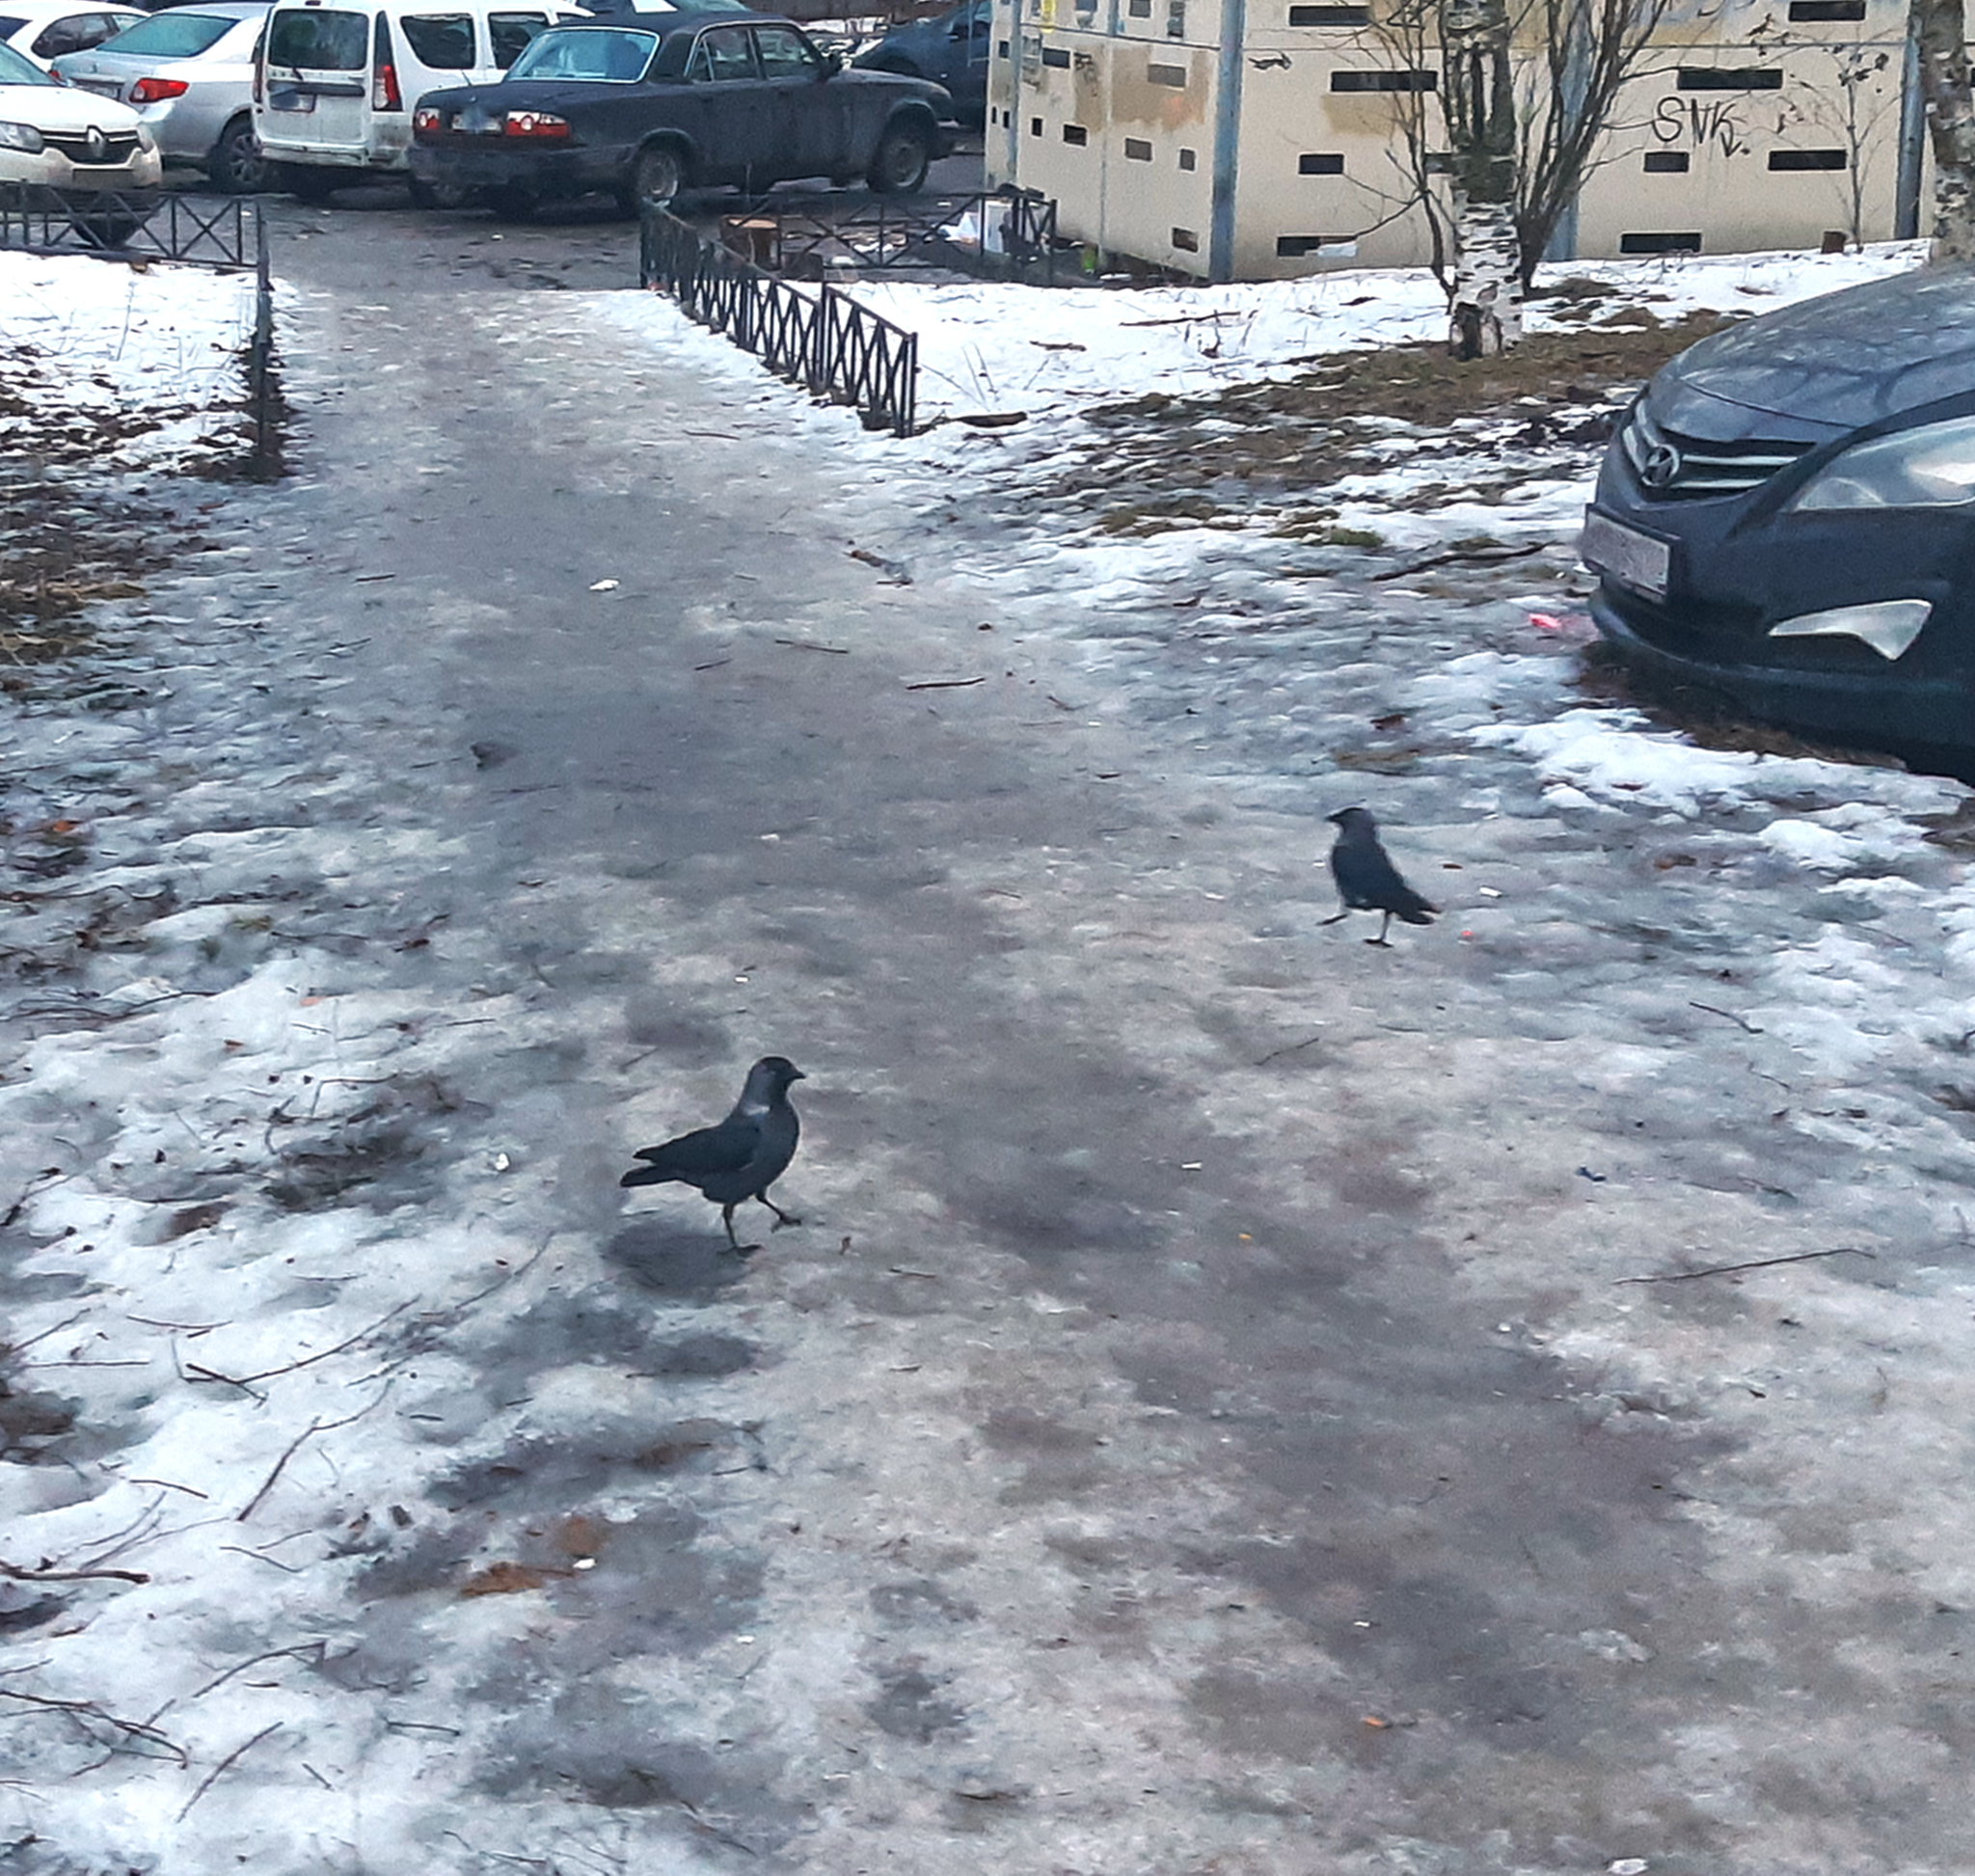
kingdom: Animalia
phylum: Chordata
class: Aves
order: Passeriformes
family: Corvidae
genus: Coloeus
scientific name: Coloeus monedula
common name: Western jackdaw
